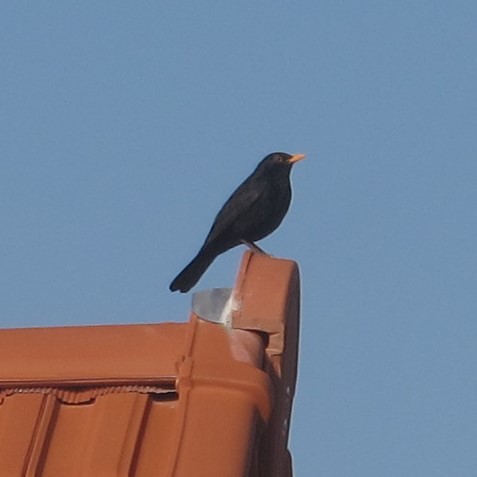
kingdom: Animalia
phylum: Chordata
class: Aves
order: Passeriformes
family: Turdidae
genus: Turdus
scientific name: Turdus merula
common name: Common blackbird
